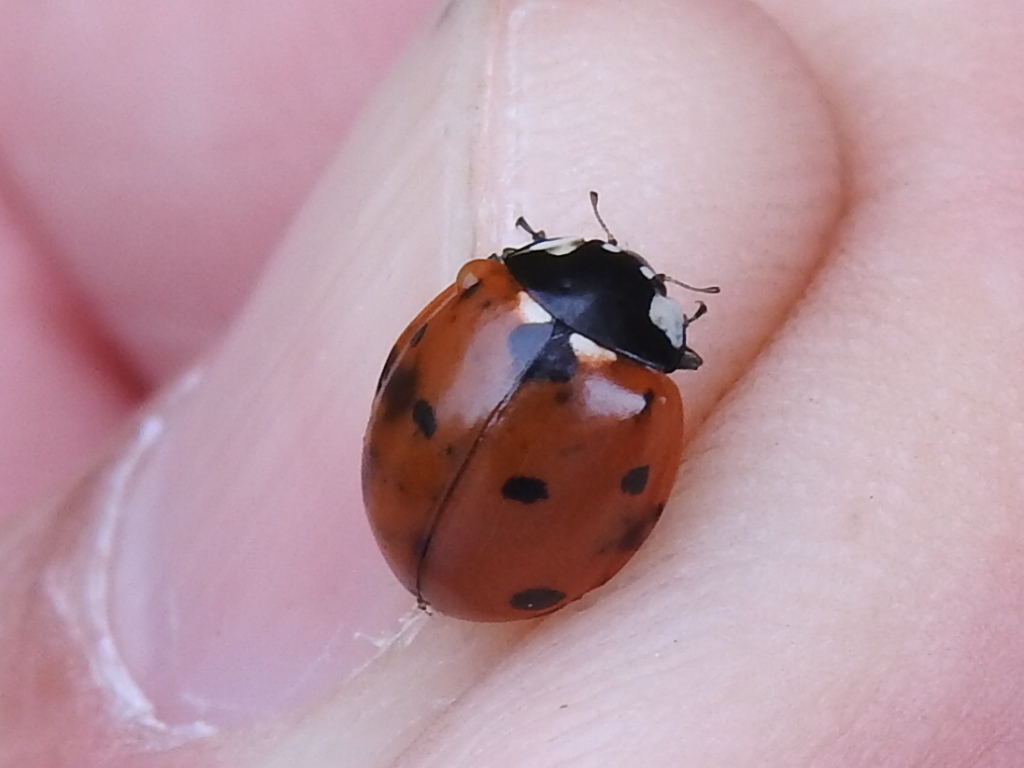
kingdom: Animalia
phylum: Arthropoda
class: Insecta
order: Coleoptera
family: Coccinellidae
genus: Coccinella
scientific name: Coccinella septempunctata
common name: Sevenspotted lady beetle
